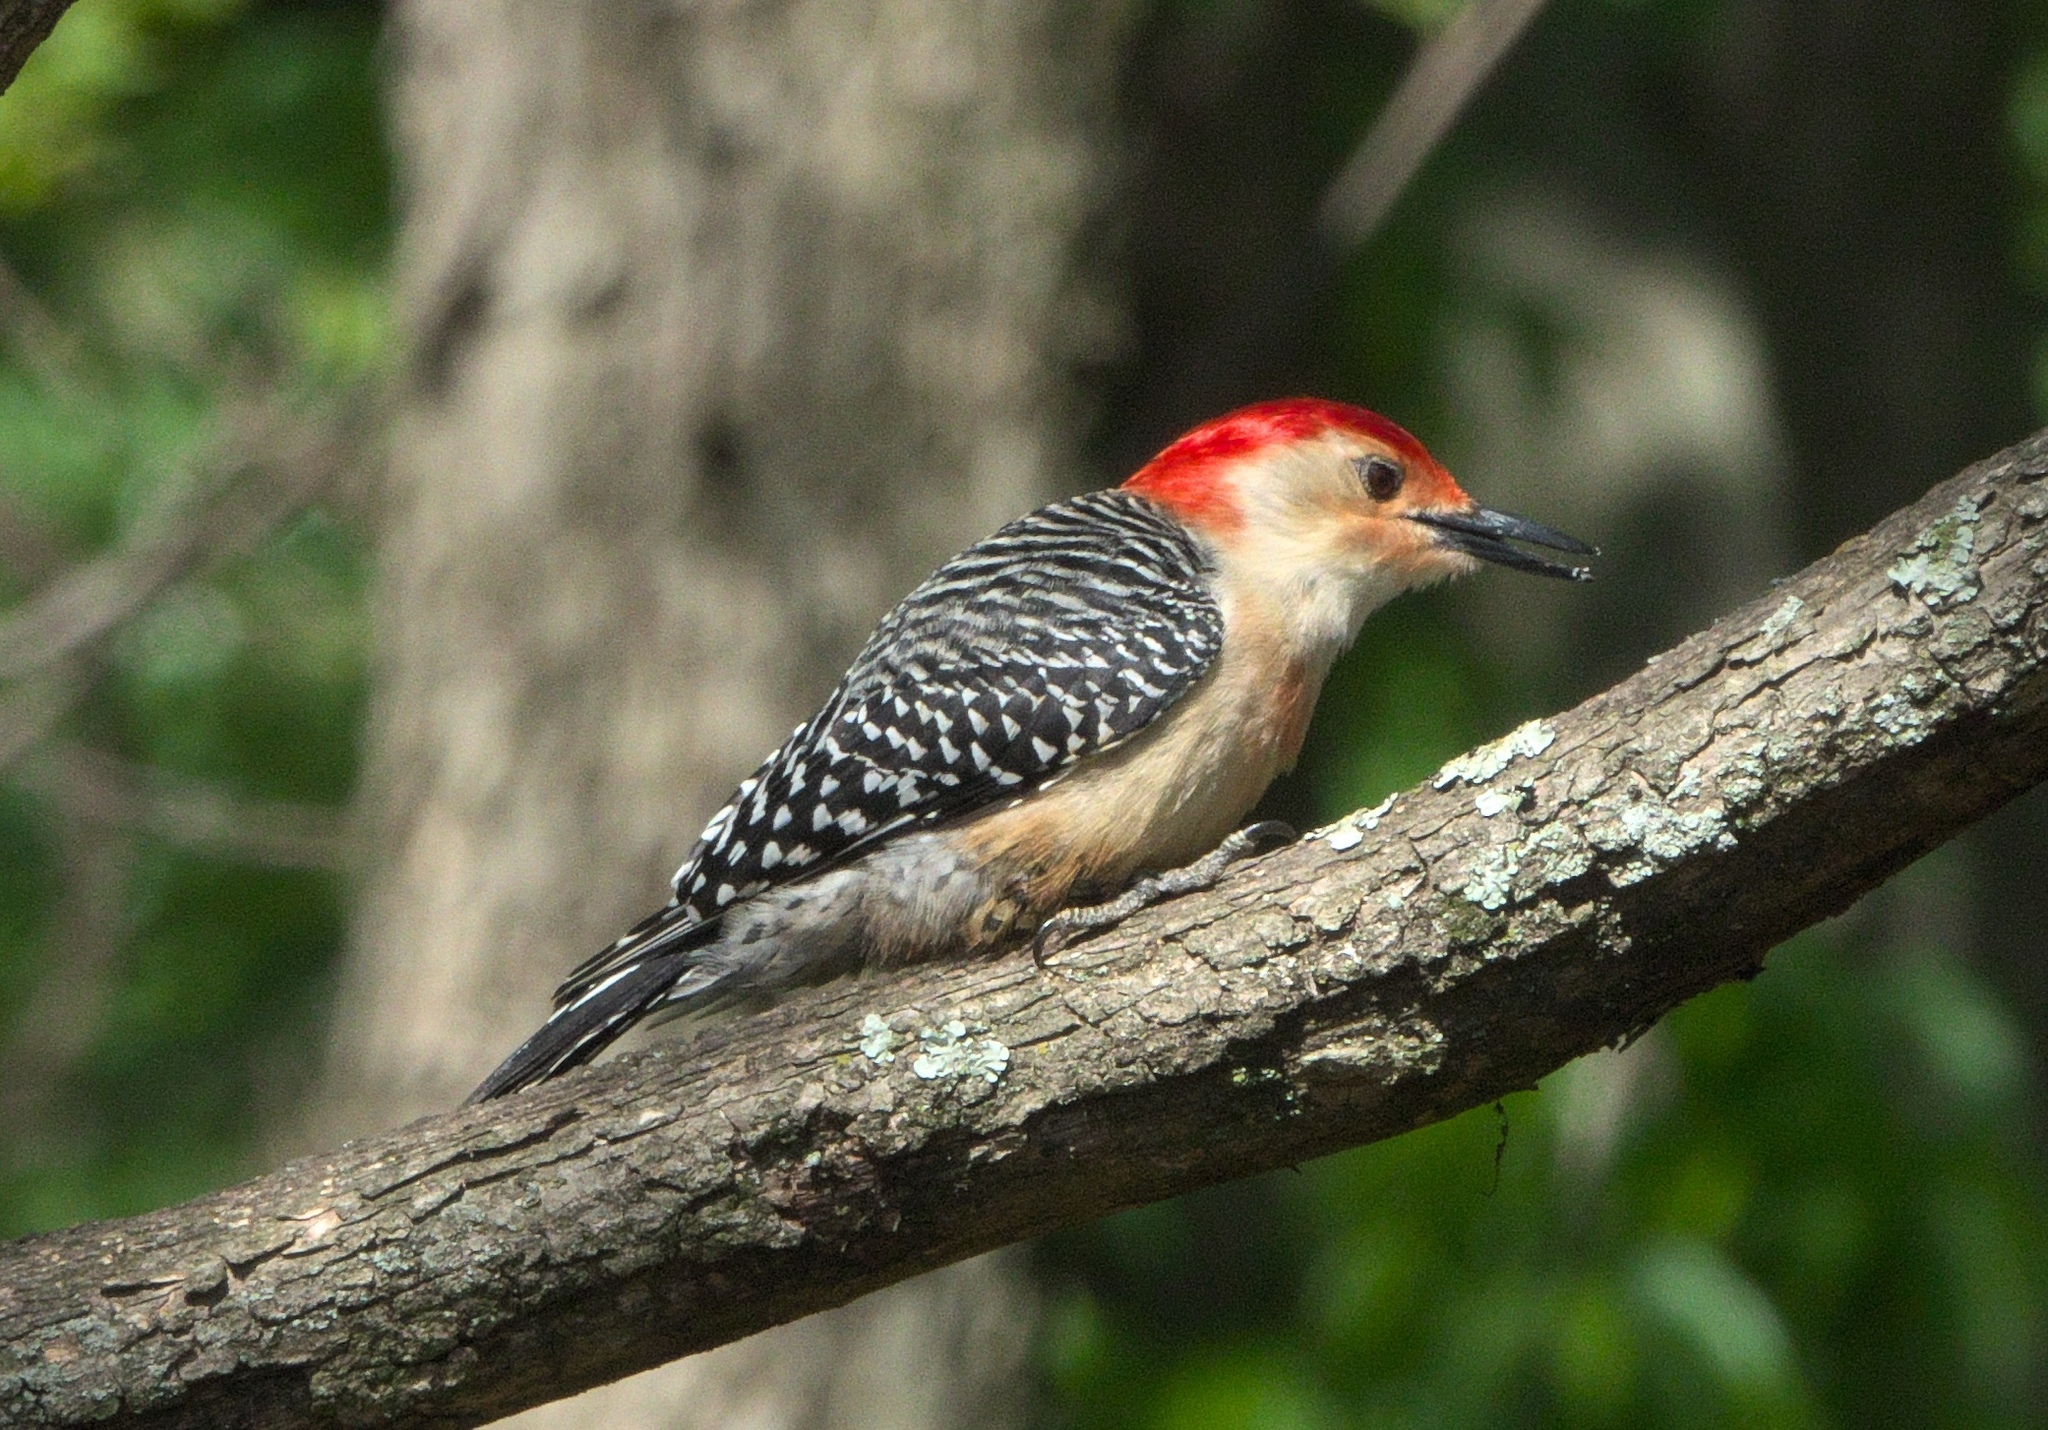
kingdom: Animalia
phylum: Chordata
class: Aves
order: Piciformes
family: Picidae
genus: Melanerpes
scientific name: Melanerpes carolinus
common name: Red-bellied woodpecker
